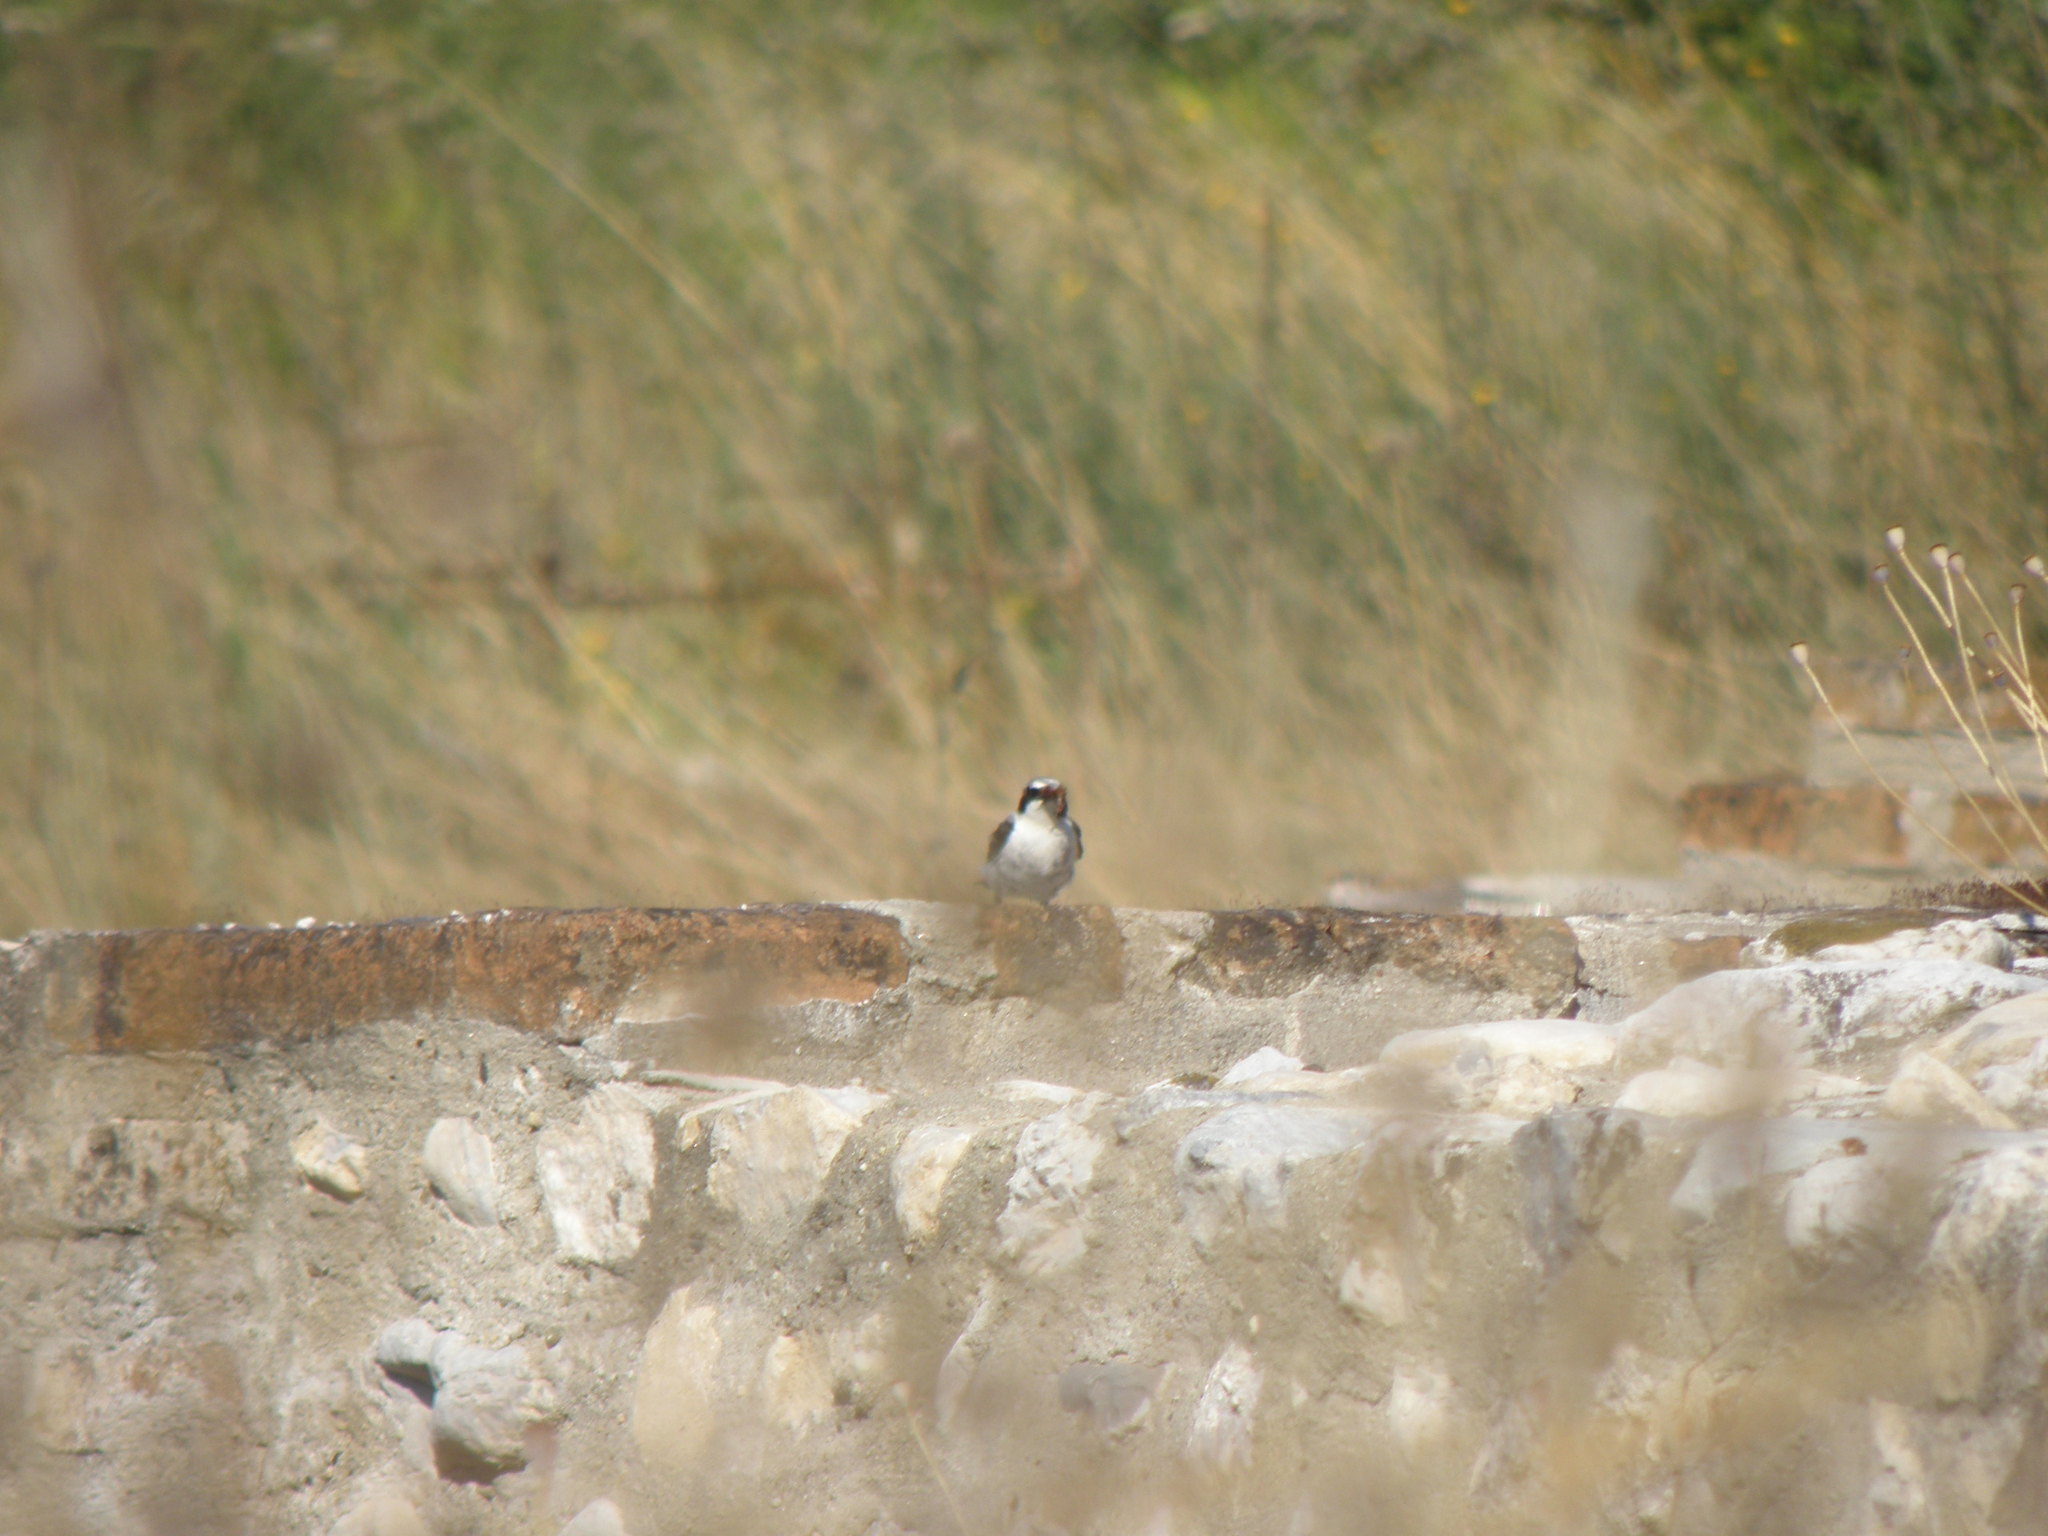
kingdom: Animalia
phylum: Chordata
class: Aves
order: Passeriformes
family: Muscicapidae
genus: Oenanthe
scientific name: Oenanthe oenanthe
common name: Northern wheatear
